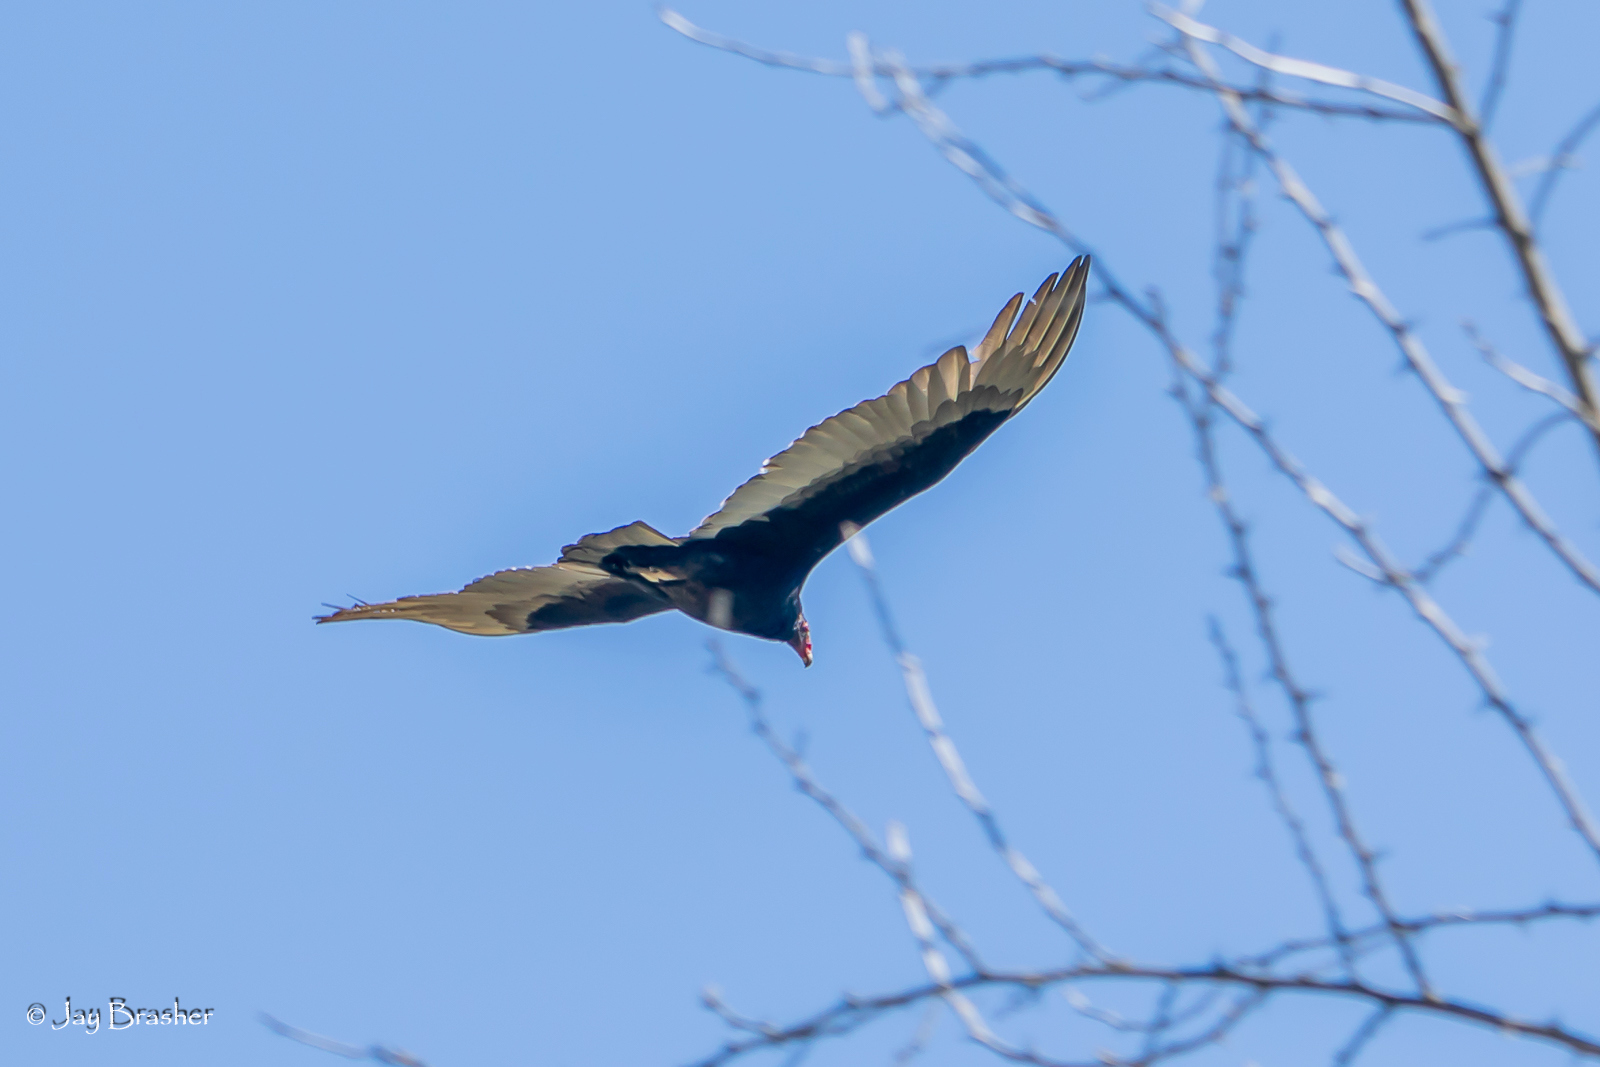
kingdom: Animalia
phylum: Chordata
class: Aves
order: Accipitriformes
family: Cathartidae
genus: Cathartes
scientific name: Cathartes aura
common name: Turkey vulture
